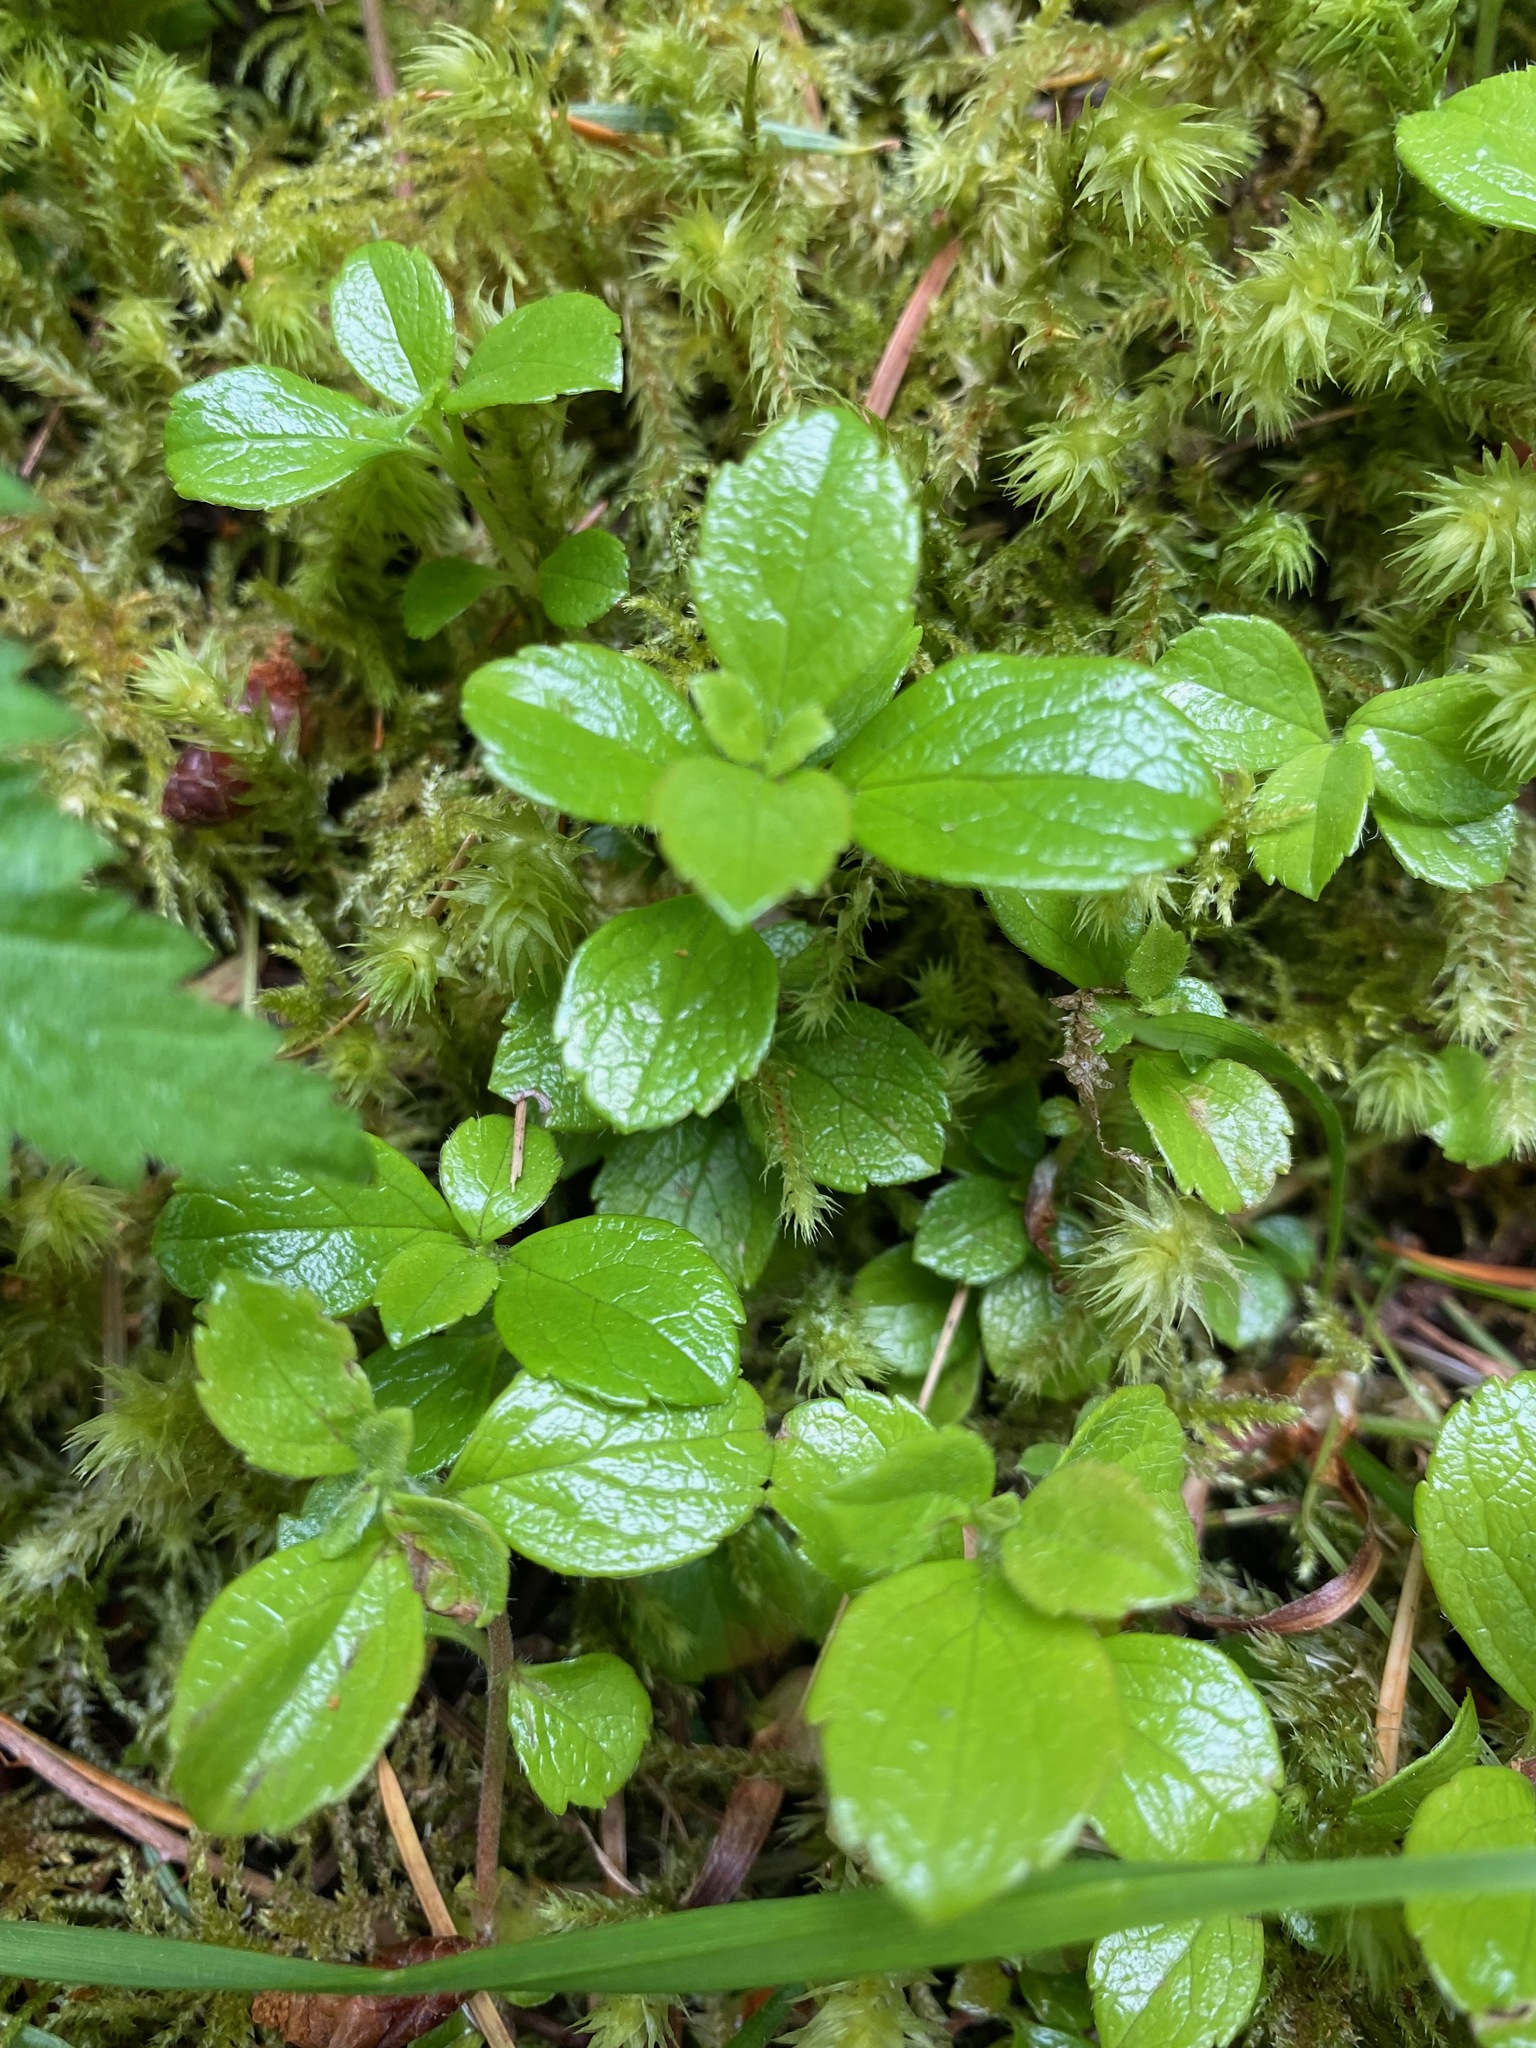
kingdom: Plantae
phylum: Tracheophyta
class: Magnoliopsida
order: Dipsacales
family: Caprifoliaceae
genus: Linnaea
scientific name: Linnaea borealis
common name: Twinflower
